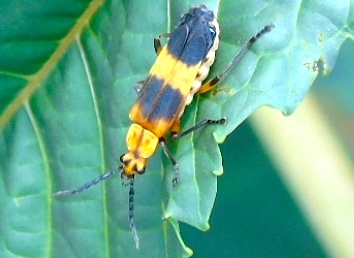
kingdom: Animalia
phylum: Arthropoda
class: Insecta
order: Coleoptera
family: Cantharidae
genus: Daiphron
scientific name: Daiphron proteum
